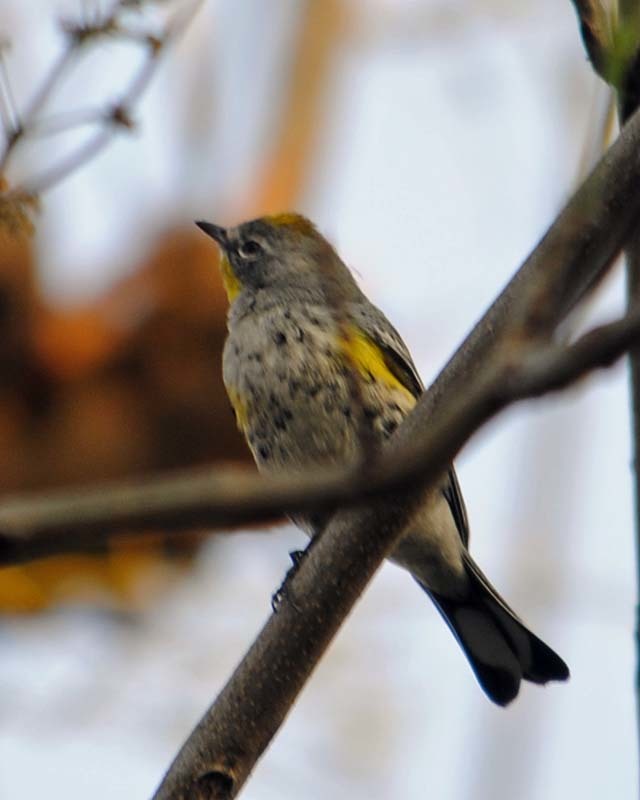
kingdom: Animalia
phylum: Chordata
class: Aves
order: Passeriformes
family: Parulidae
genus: Setophaga
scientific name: Setophaga auduboni
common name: Audubon's warbler
